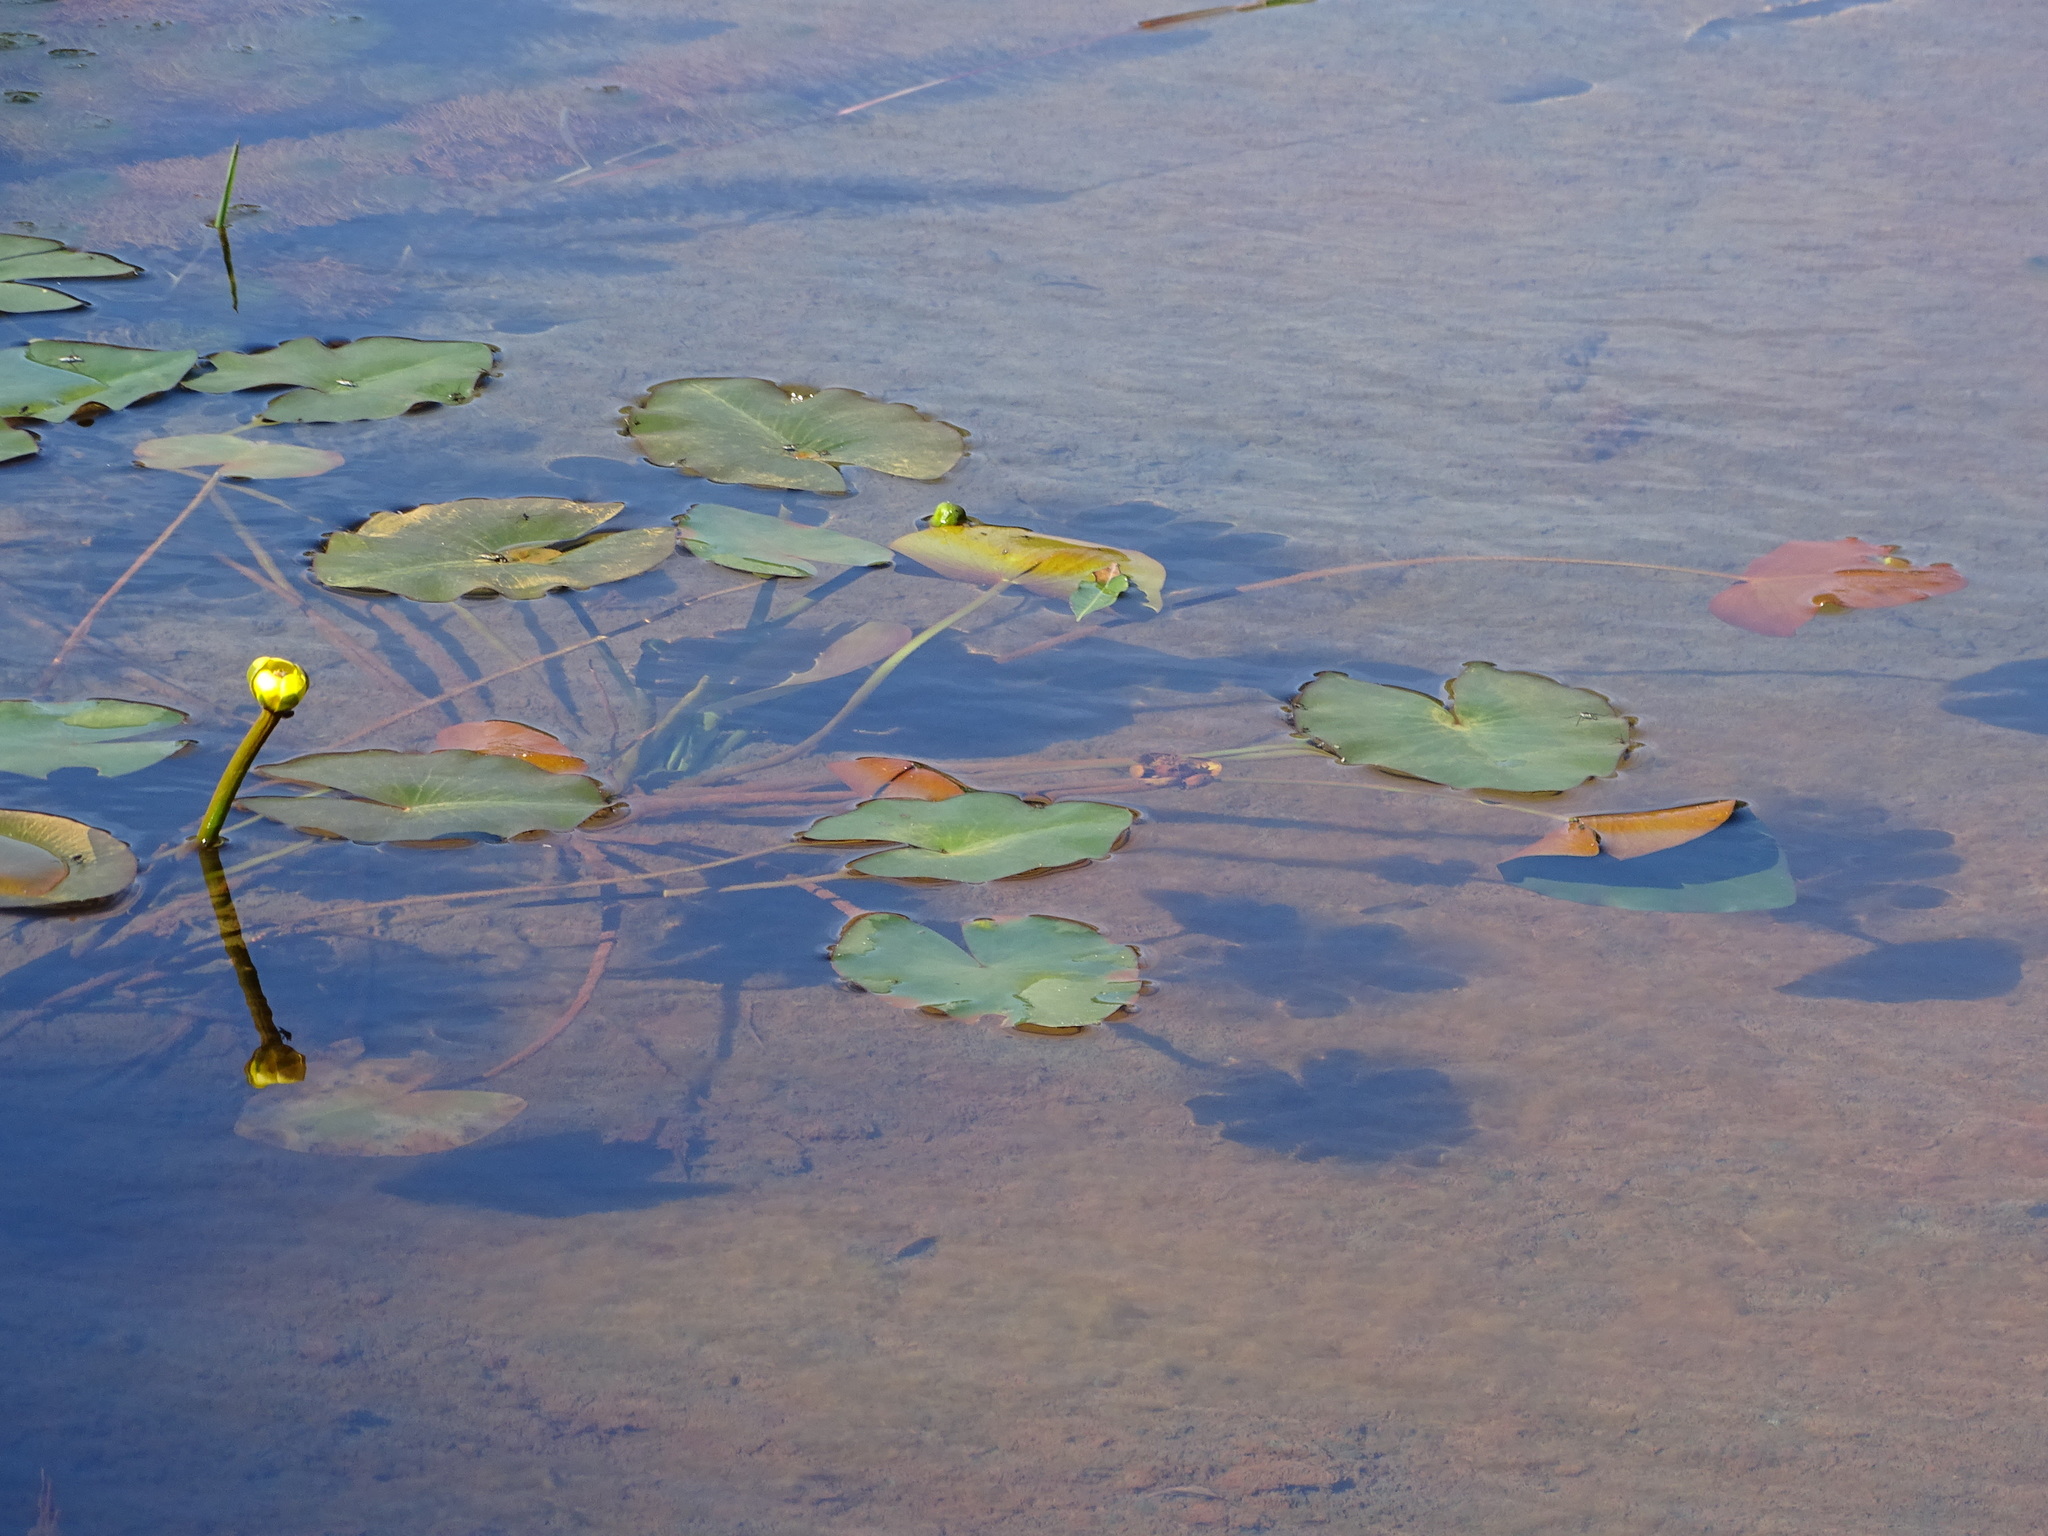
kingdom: Plantae
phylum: Tracheophyta
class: Magnoliopsida
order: Nymphaeales
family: Nymphaeaceae
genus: Nuphar
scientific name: Nuphar pumila
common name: Least water-lily
